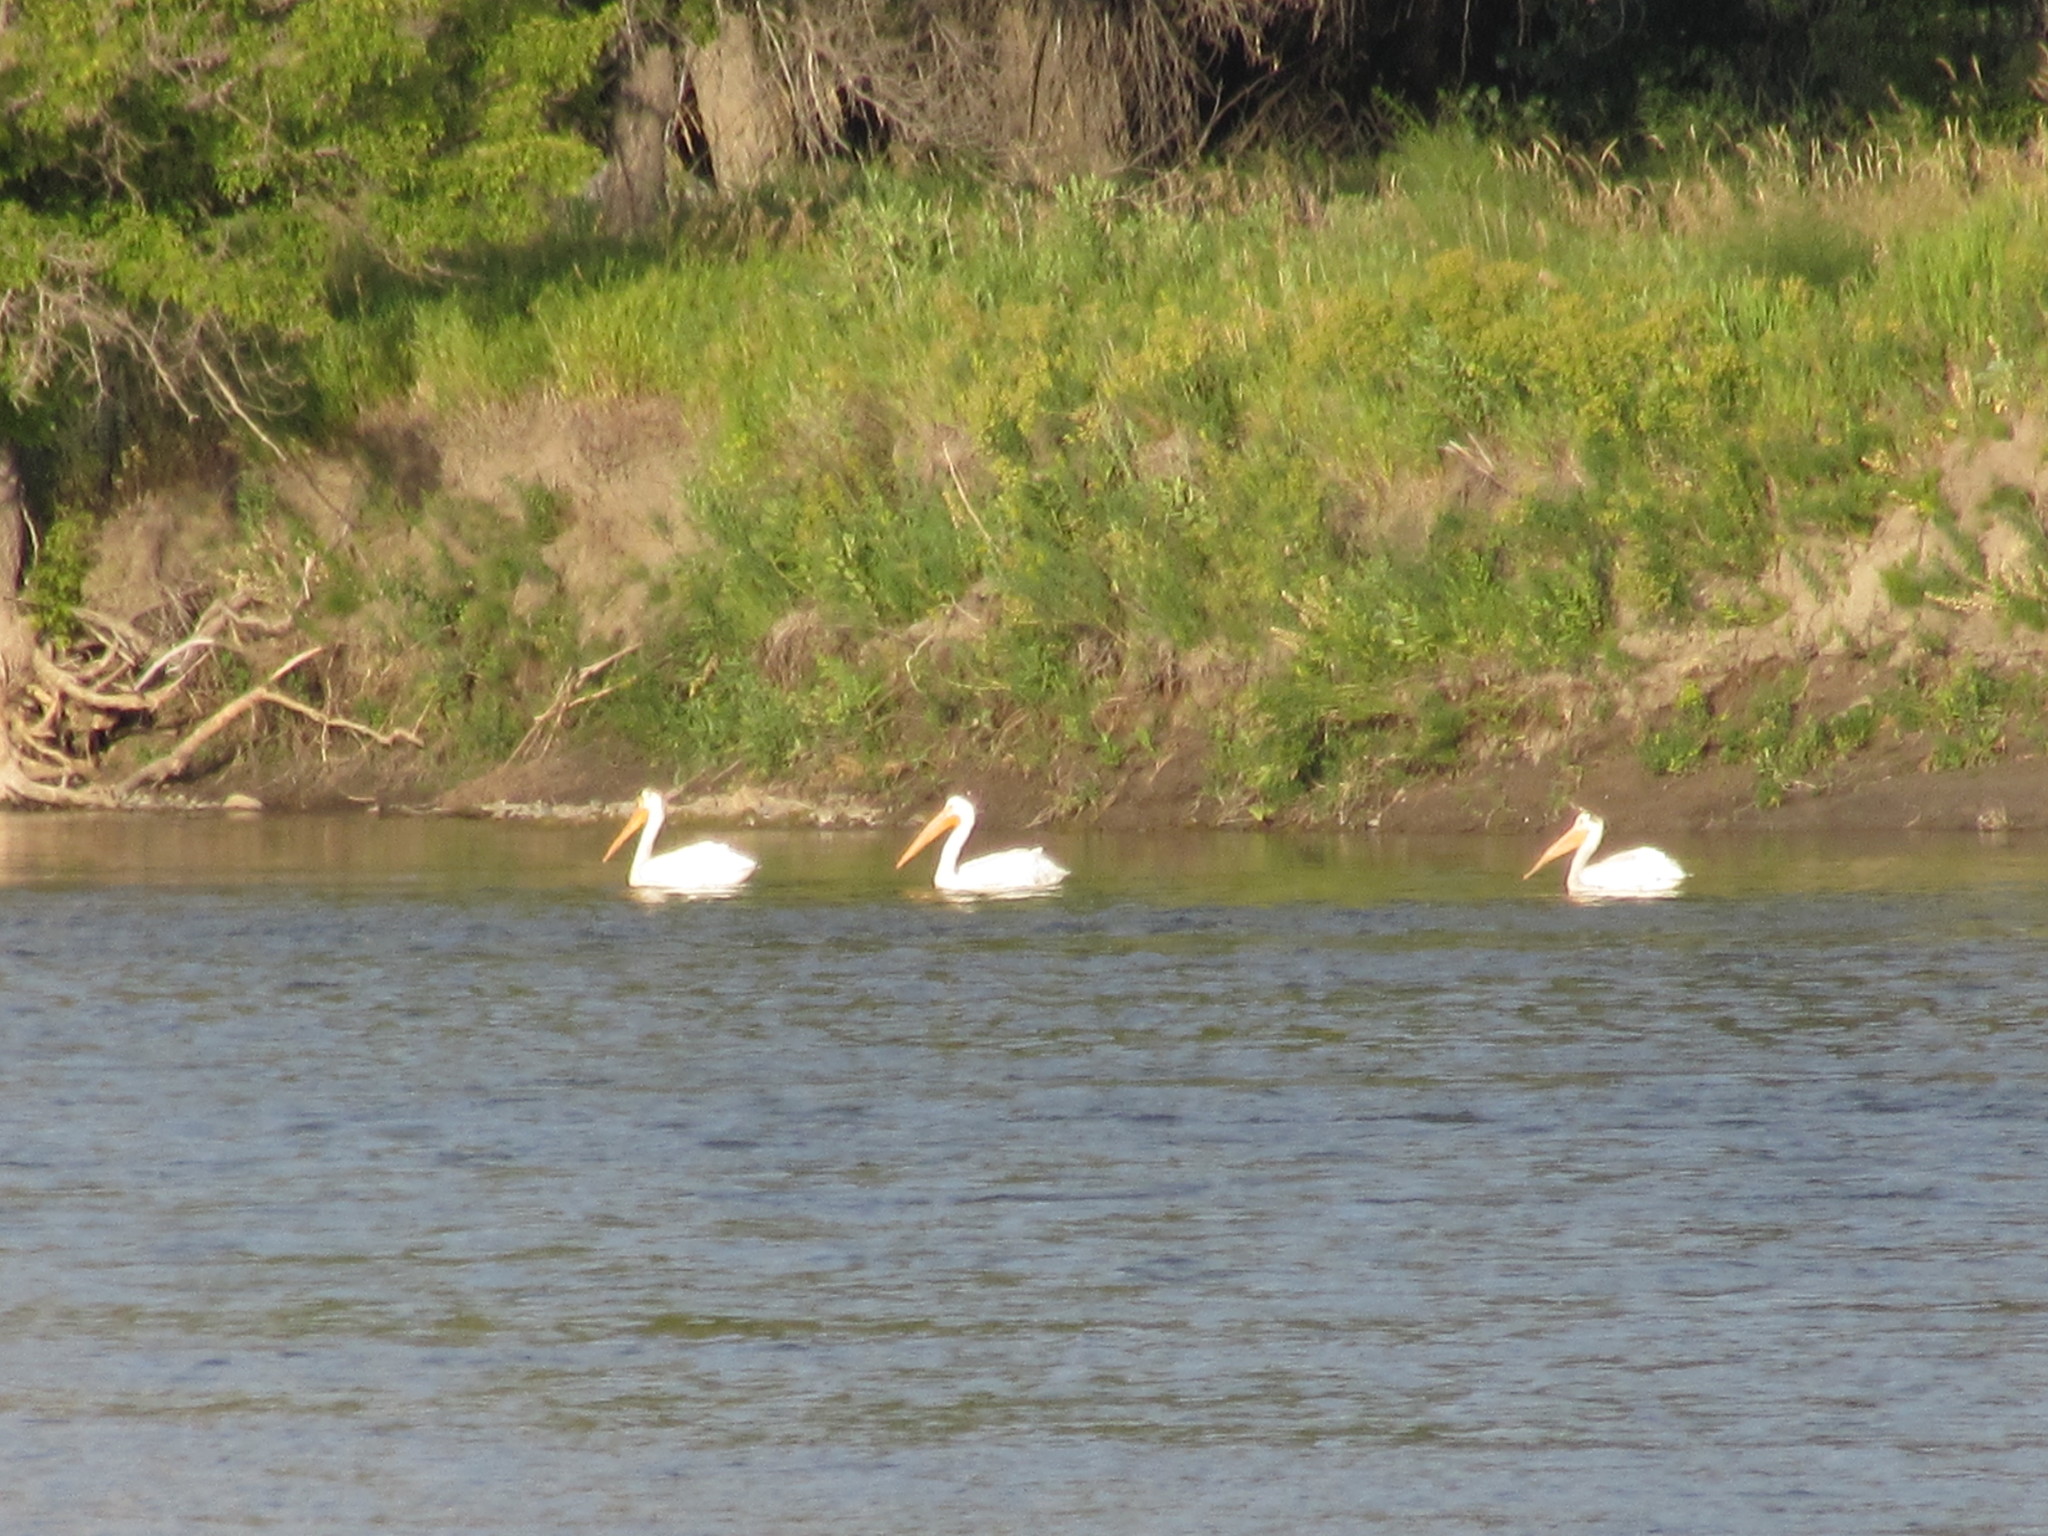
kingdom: Animalia
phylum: Chordata
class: Aves
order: Pelecaniformes
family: Pelecanidae
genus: Pelecanus
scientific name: Pelecanus erythrorhynchos
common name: American white pelican
